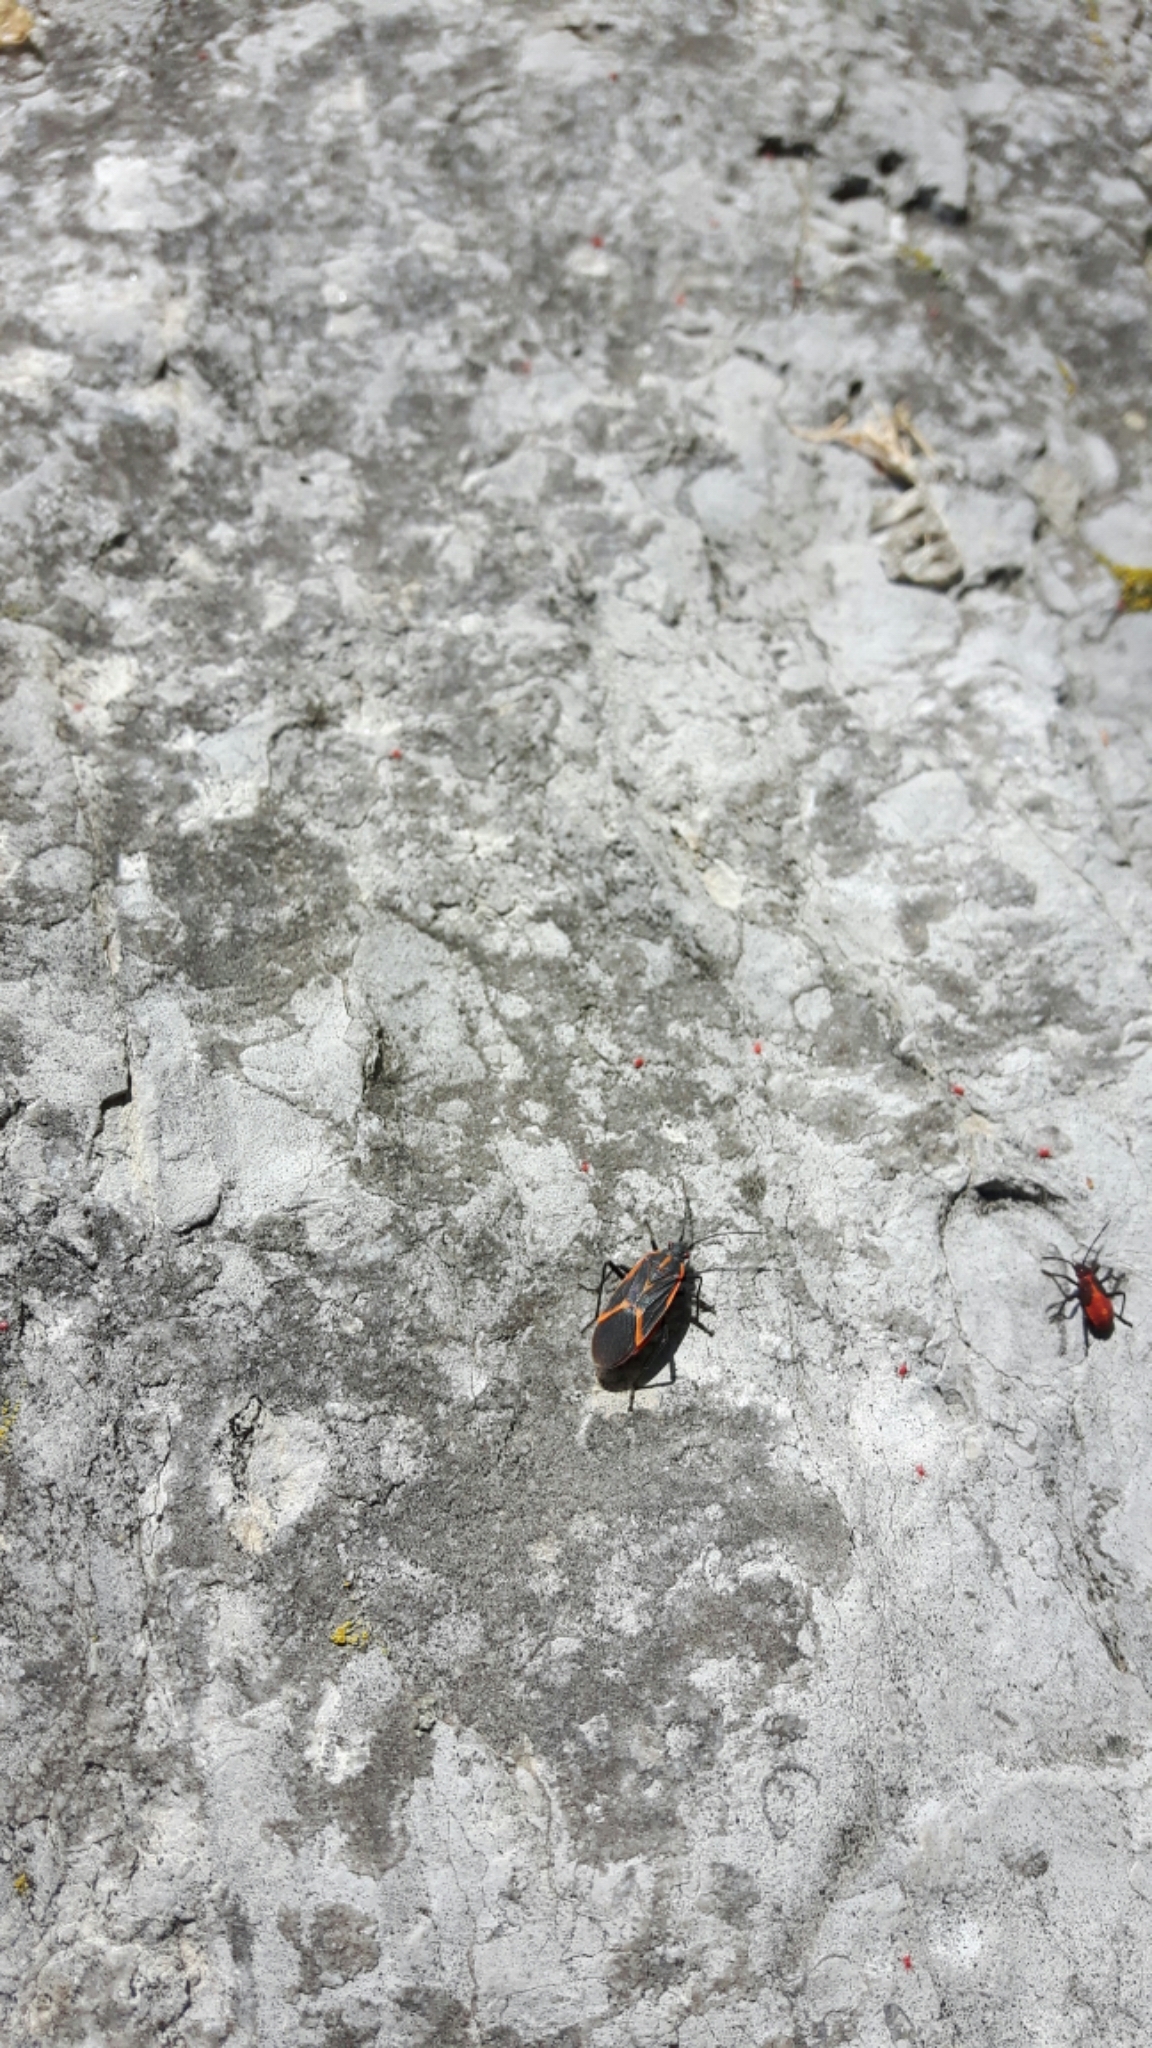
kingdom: Animalia
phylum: Arthropoda
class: Insecta
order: Hemiptera
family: Rhopalidae
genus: Boisea
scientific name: Boisea trivittata
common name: Boxelder bug
